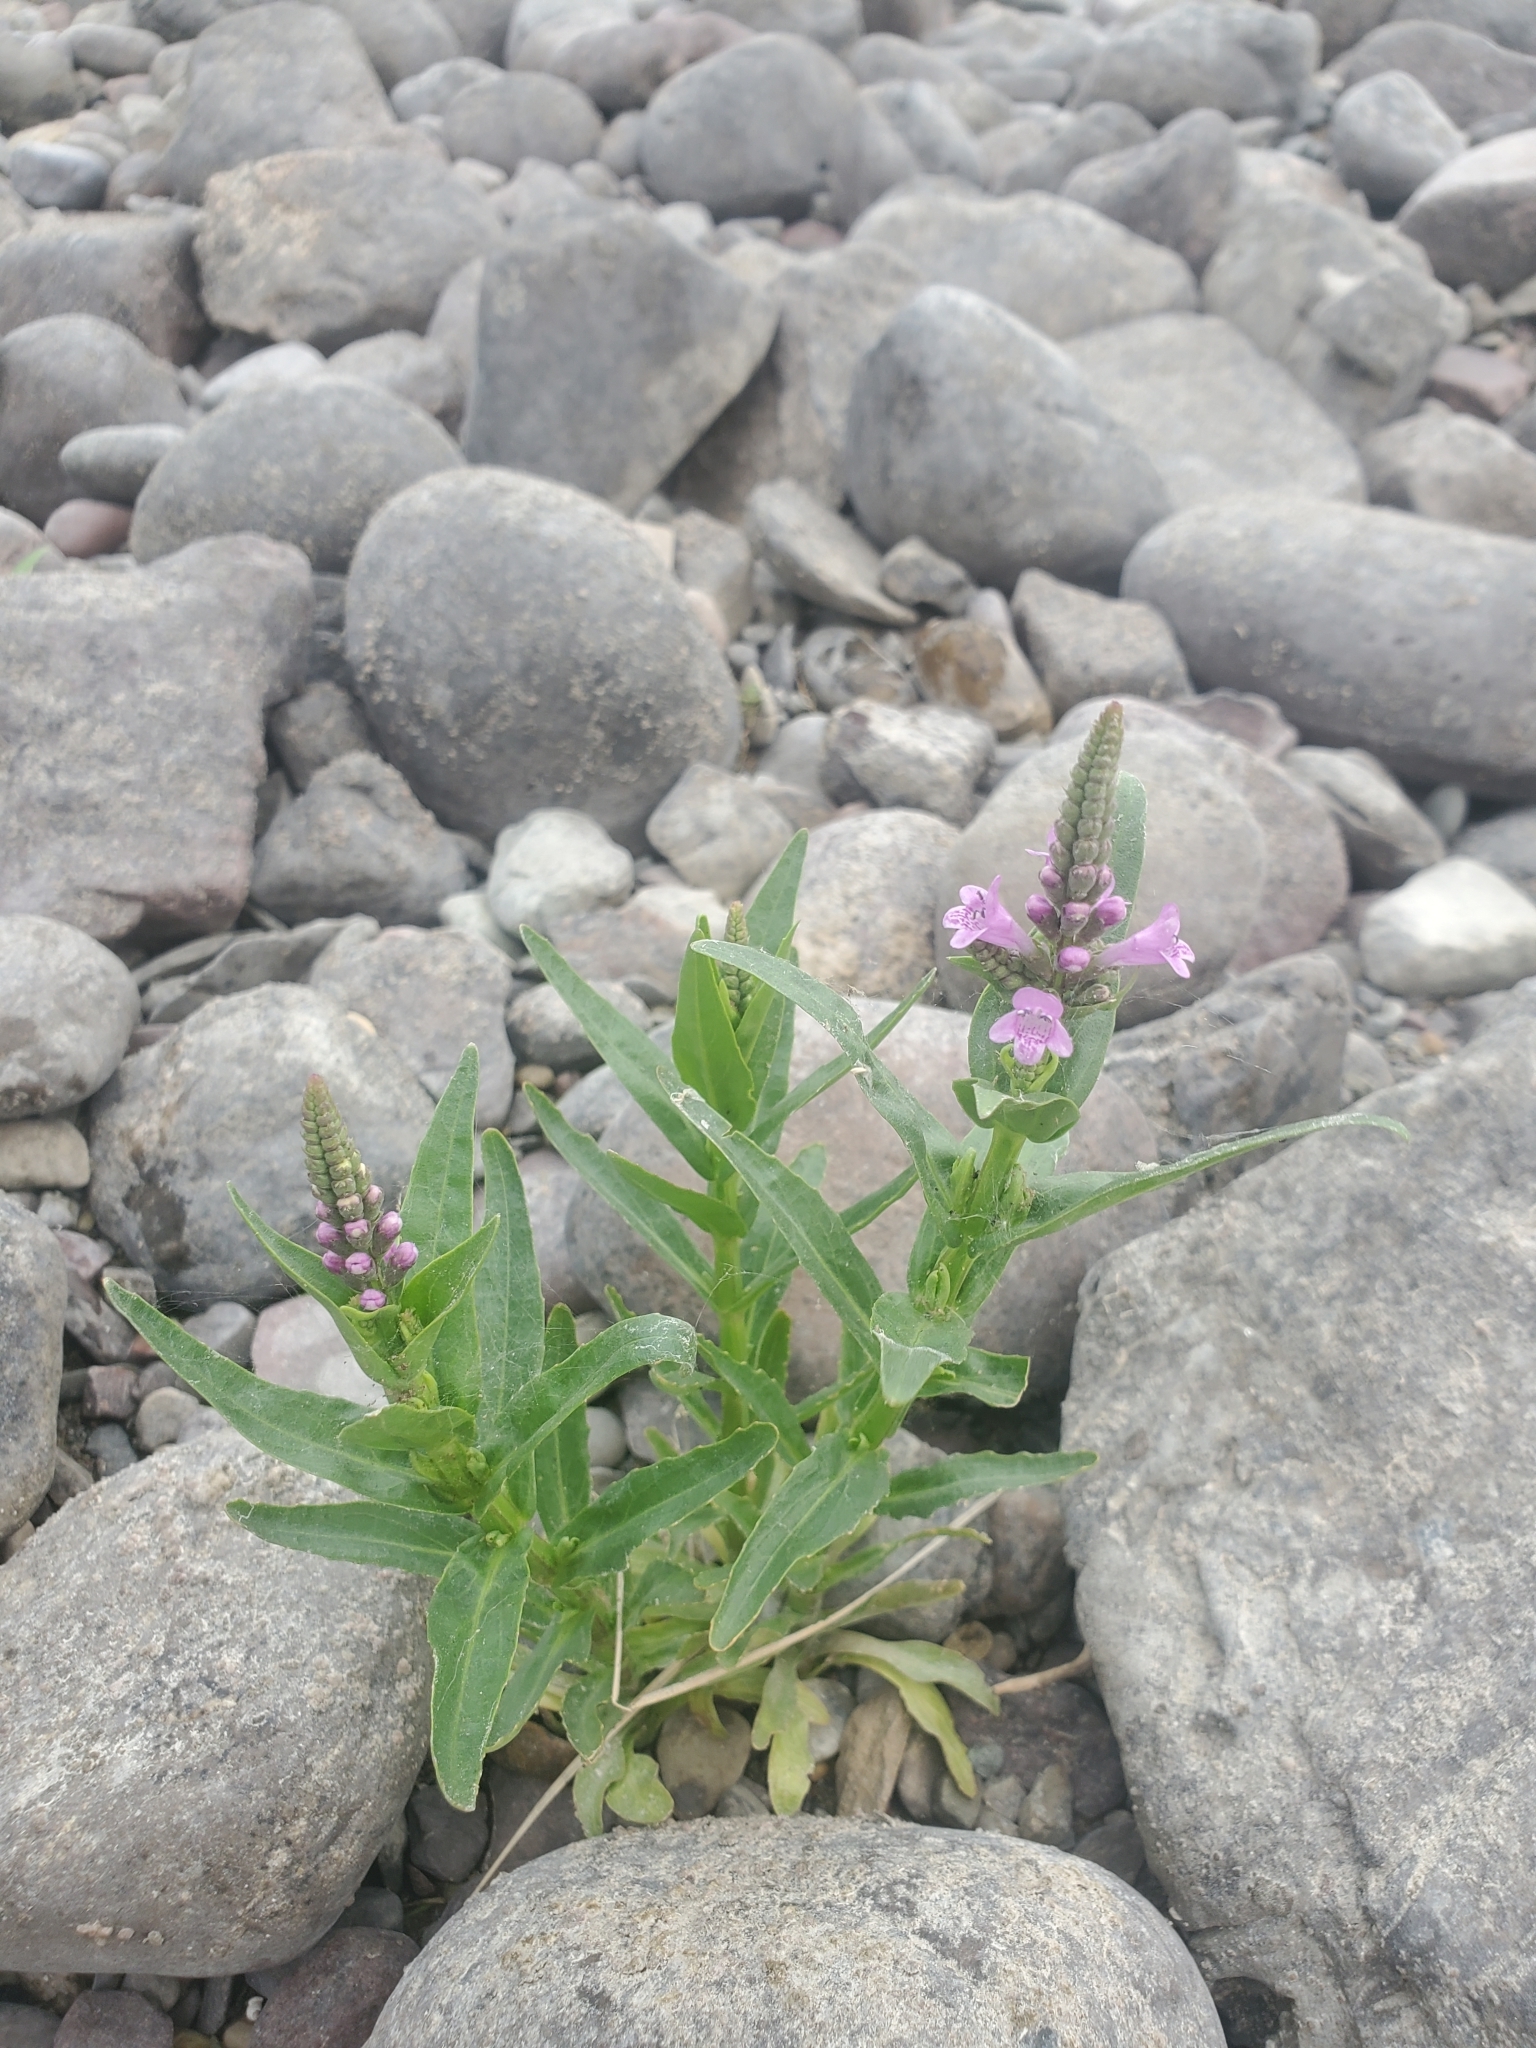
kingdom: Plantae
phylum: Tracheophyta
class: Magnoliopsida
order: Lamiales
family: Lamiaceae
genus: Physostegia
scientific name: Physostegia parviflora
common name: American dragonhead
